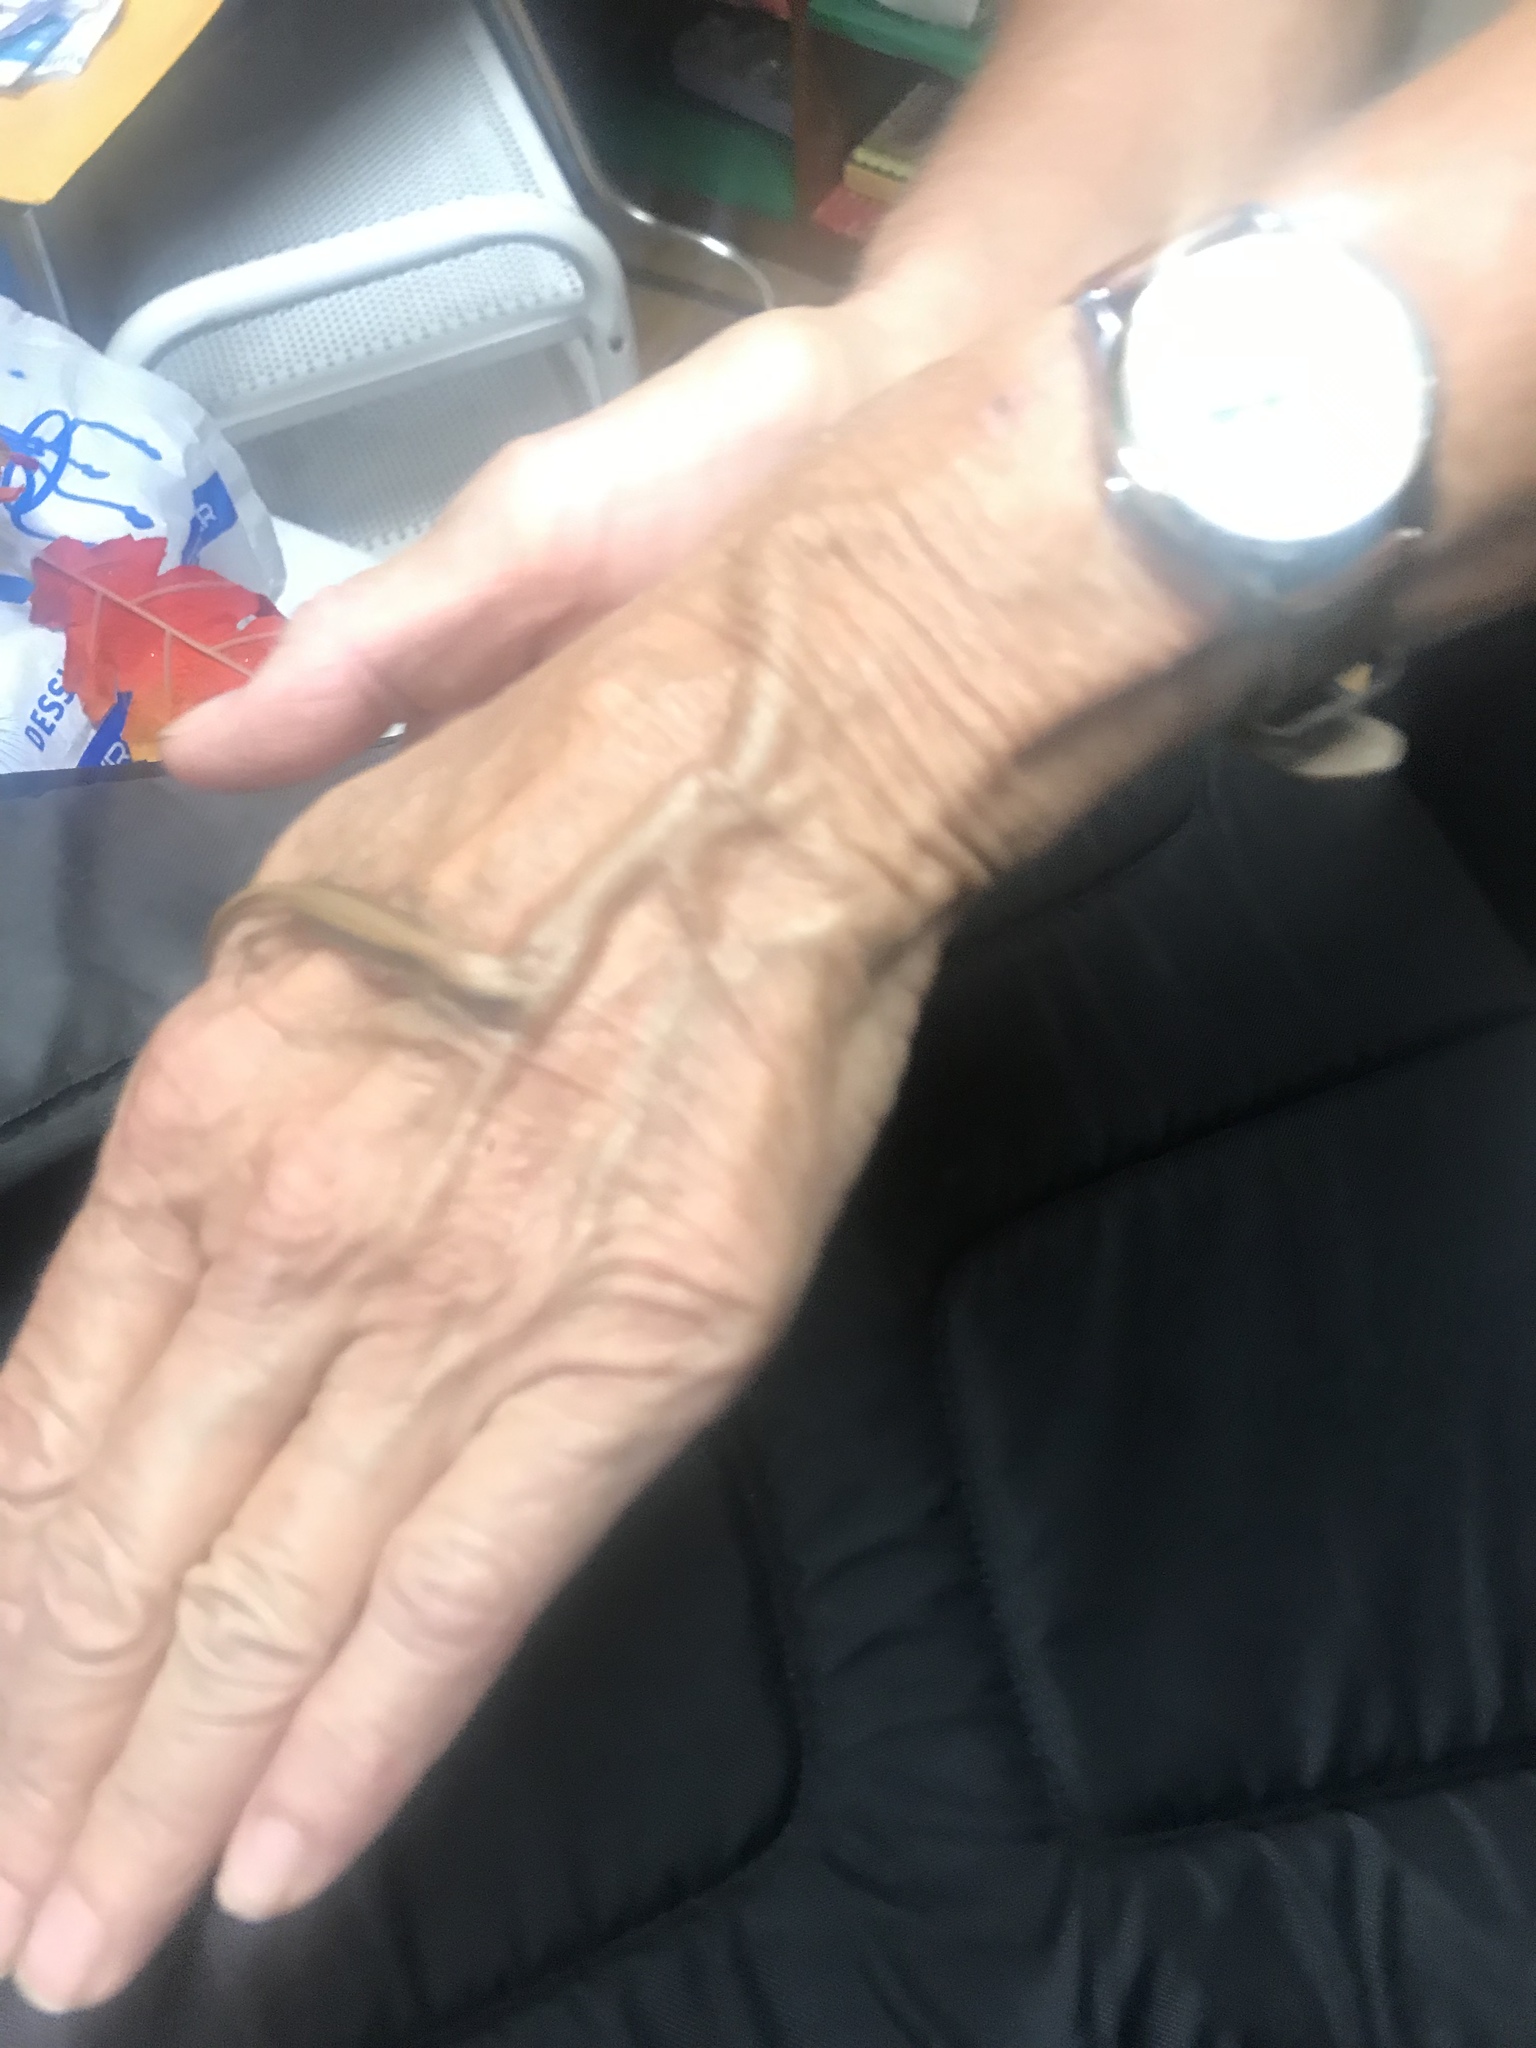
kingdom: Animalia
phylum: Chordata
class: Squamata
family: Anguidae
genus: Elgaria
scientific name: Elgaria multicarinata
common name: Southern alligator lizard
